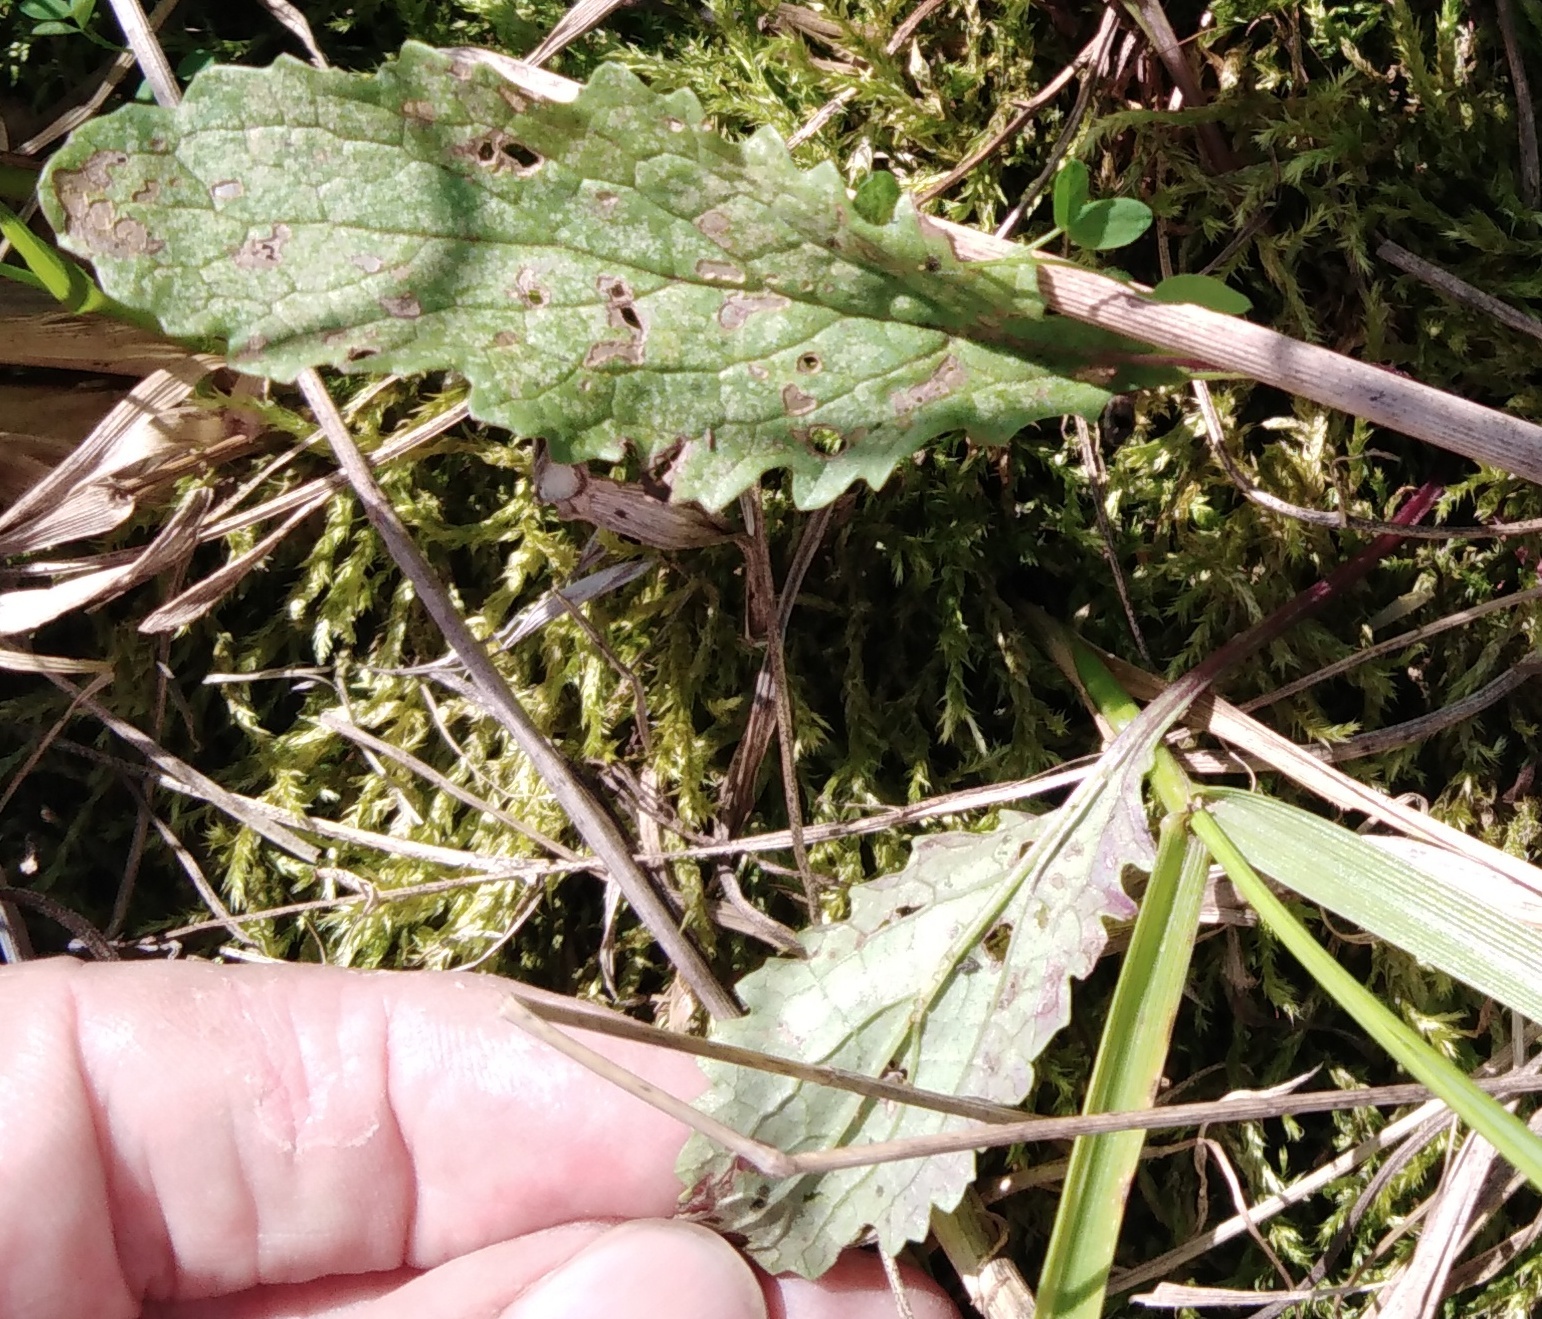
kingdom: Plantae
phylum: Tracheophyta
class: Magnoliopsida
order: Asterales
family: Asteraceae
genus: Jacobaea
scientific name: Jacobaea vulgaris
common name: Stinking willie
